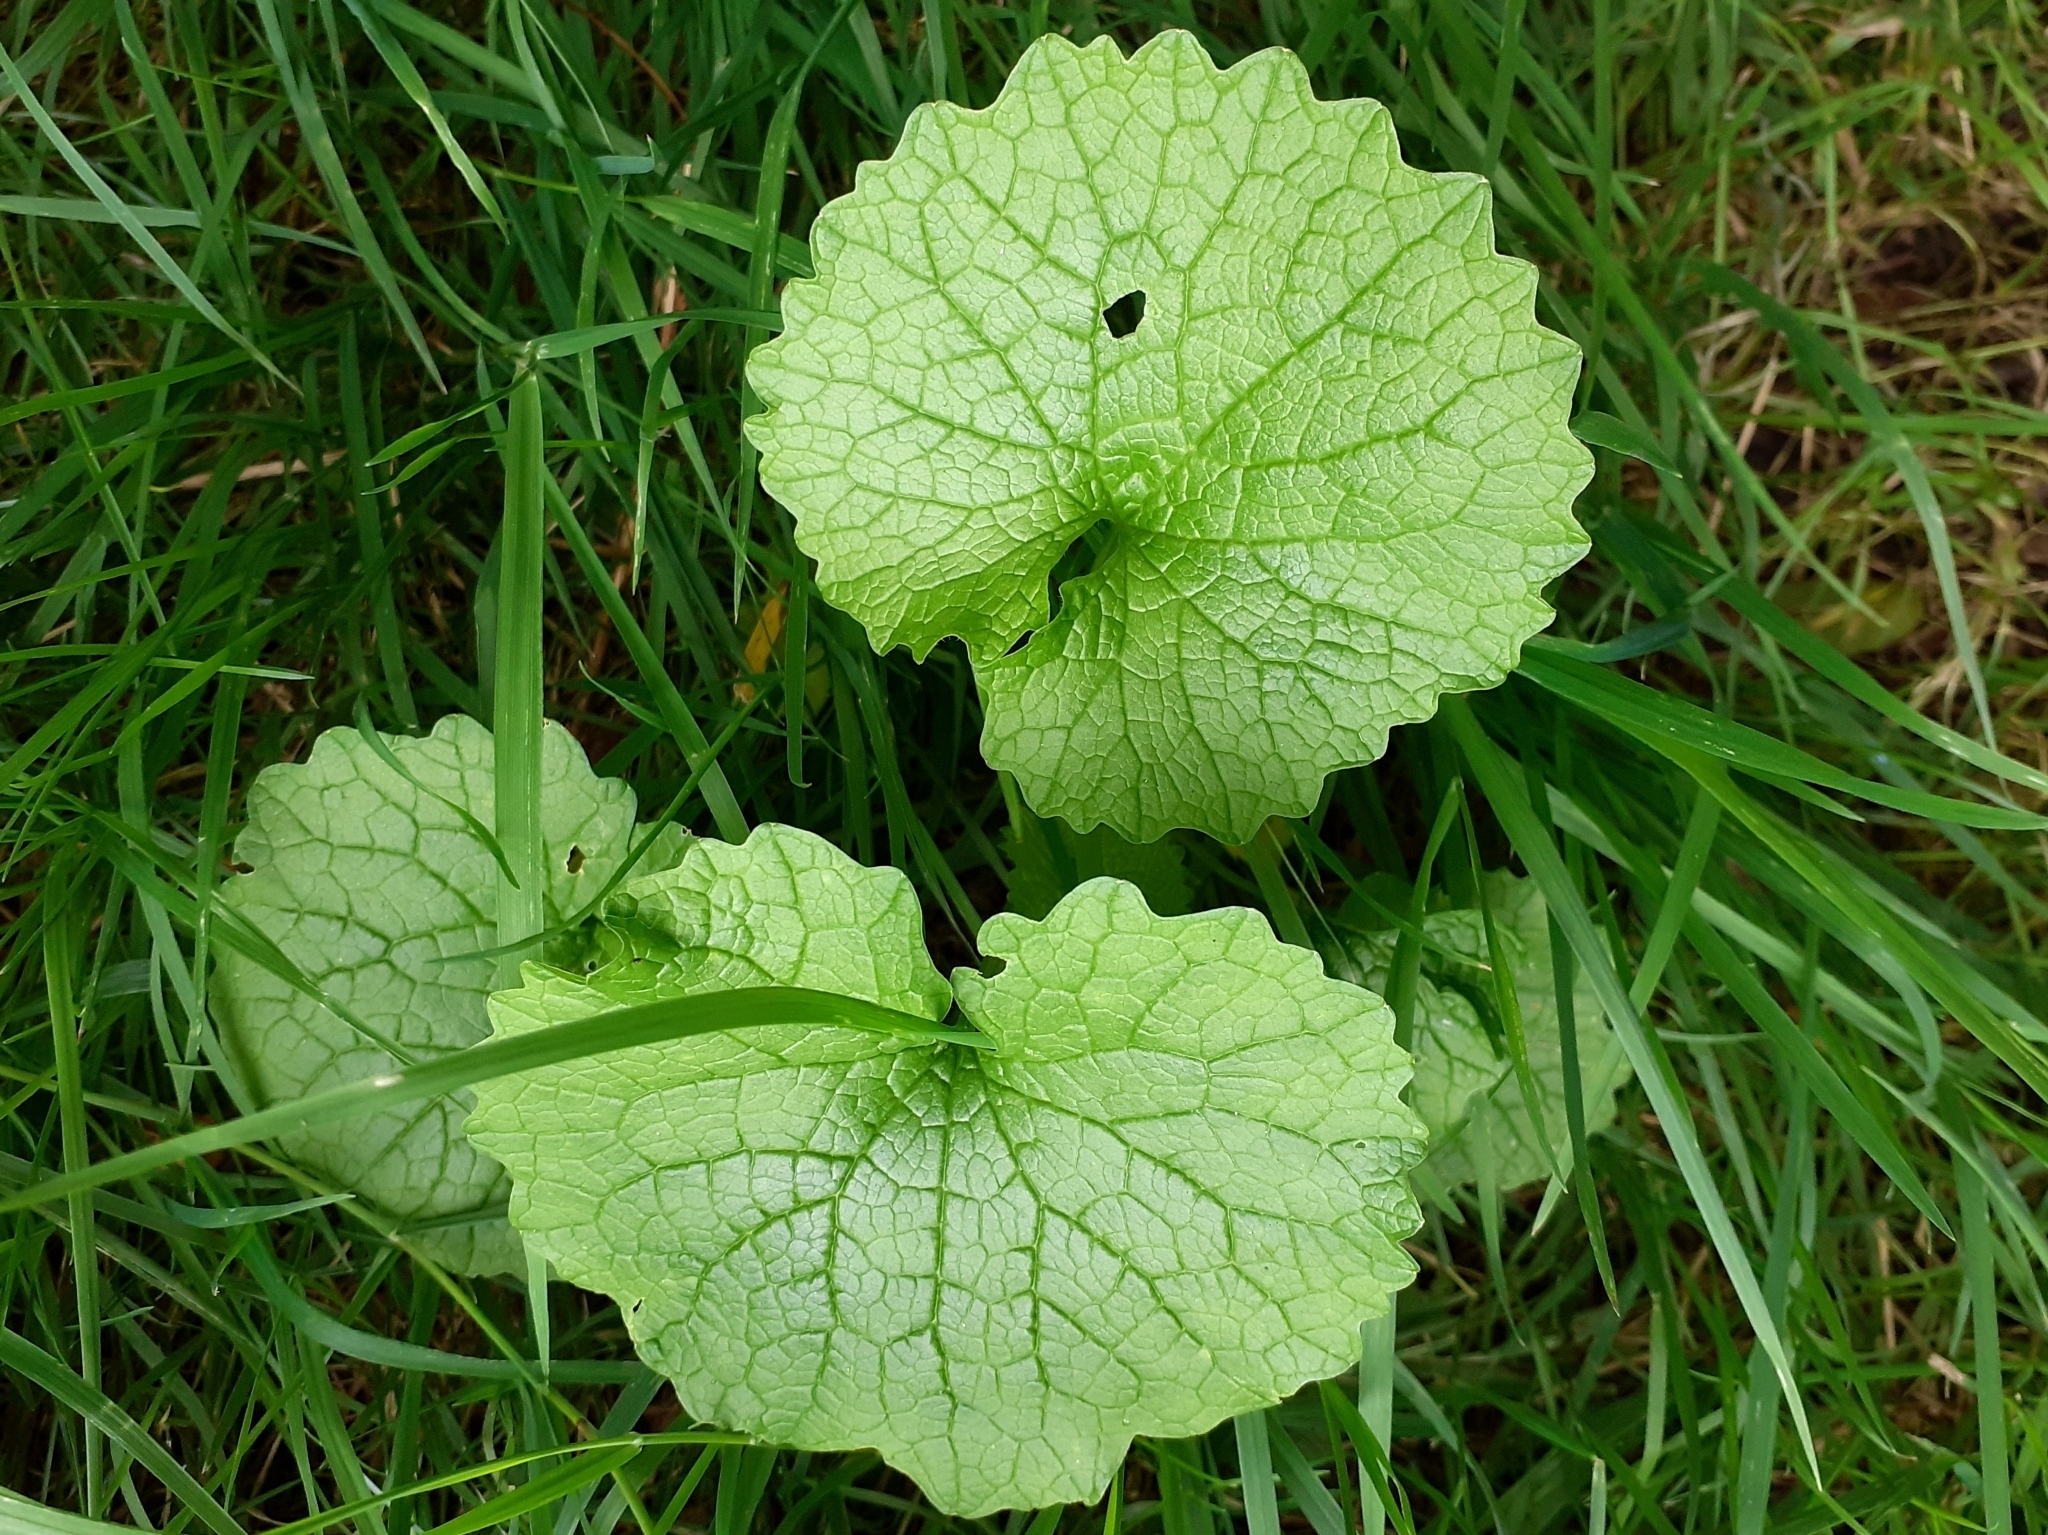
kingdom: Plantae
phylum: Tracheophyta
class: Magnoliopsida
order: Brassicales
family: Brassicaceae
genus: Alliaria
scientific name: Alliaria petiolata
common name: Garlic mustard
